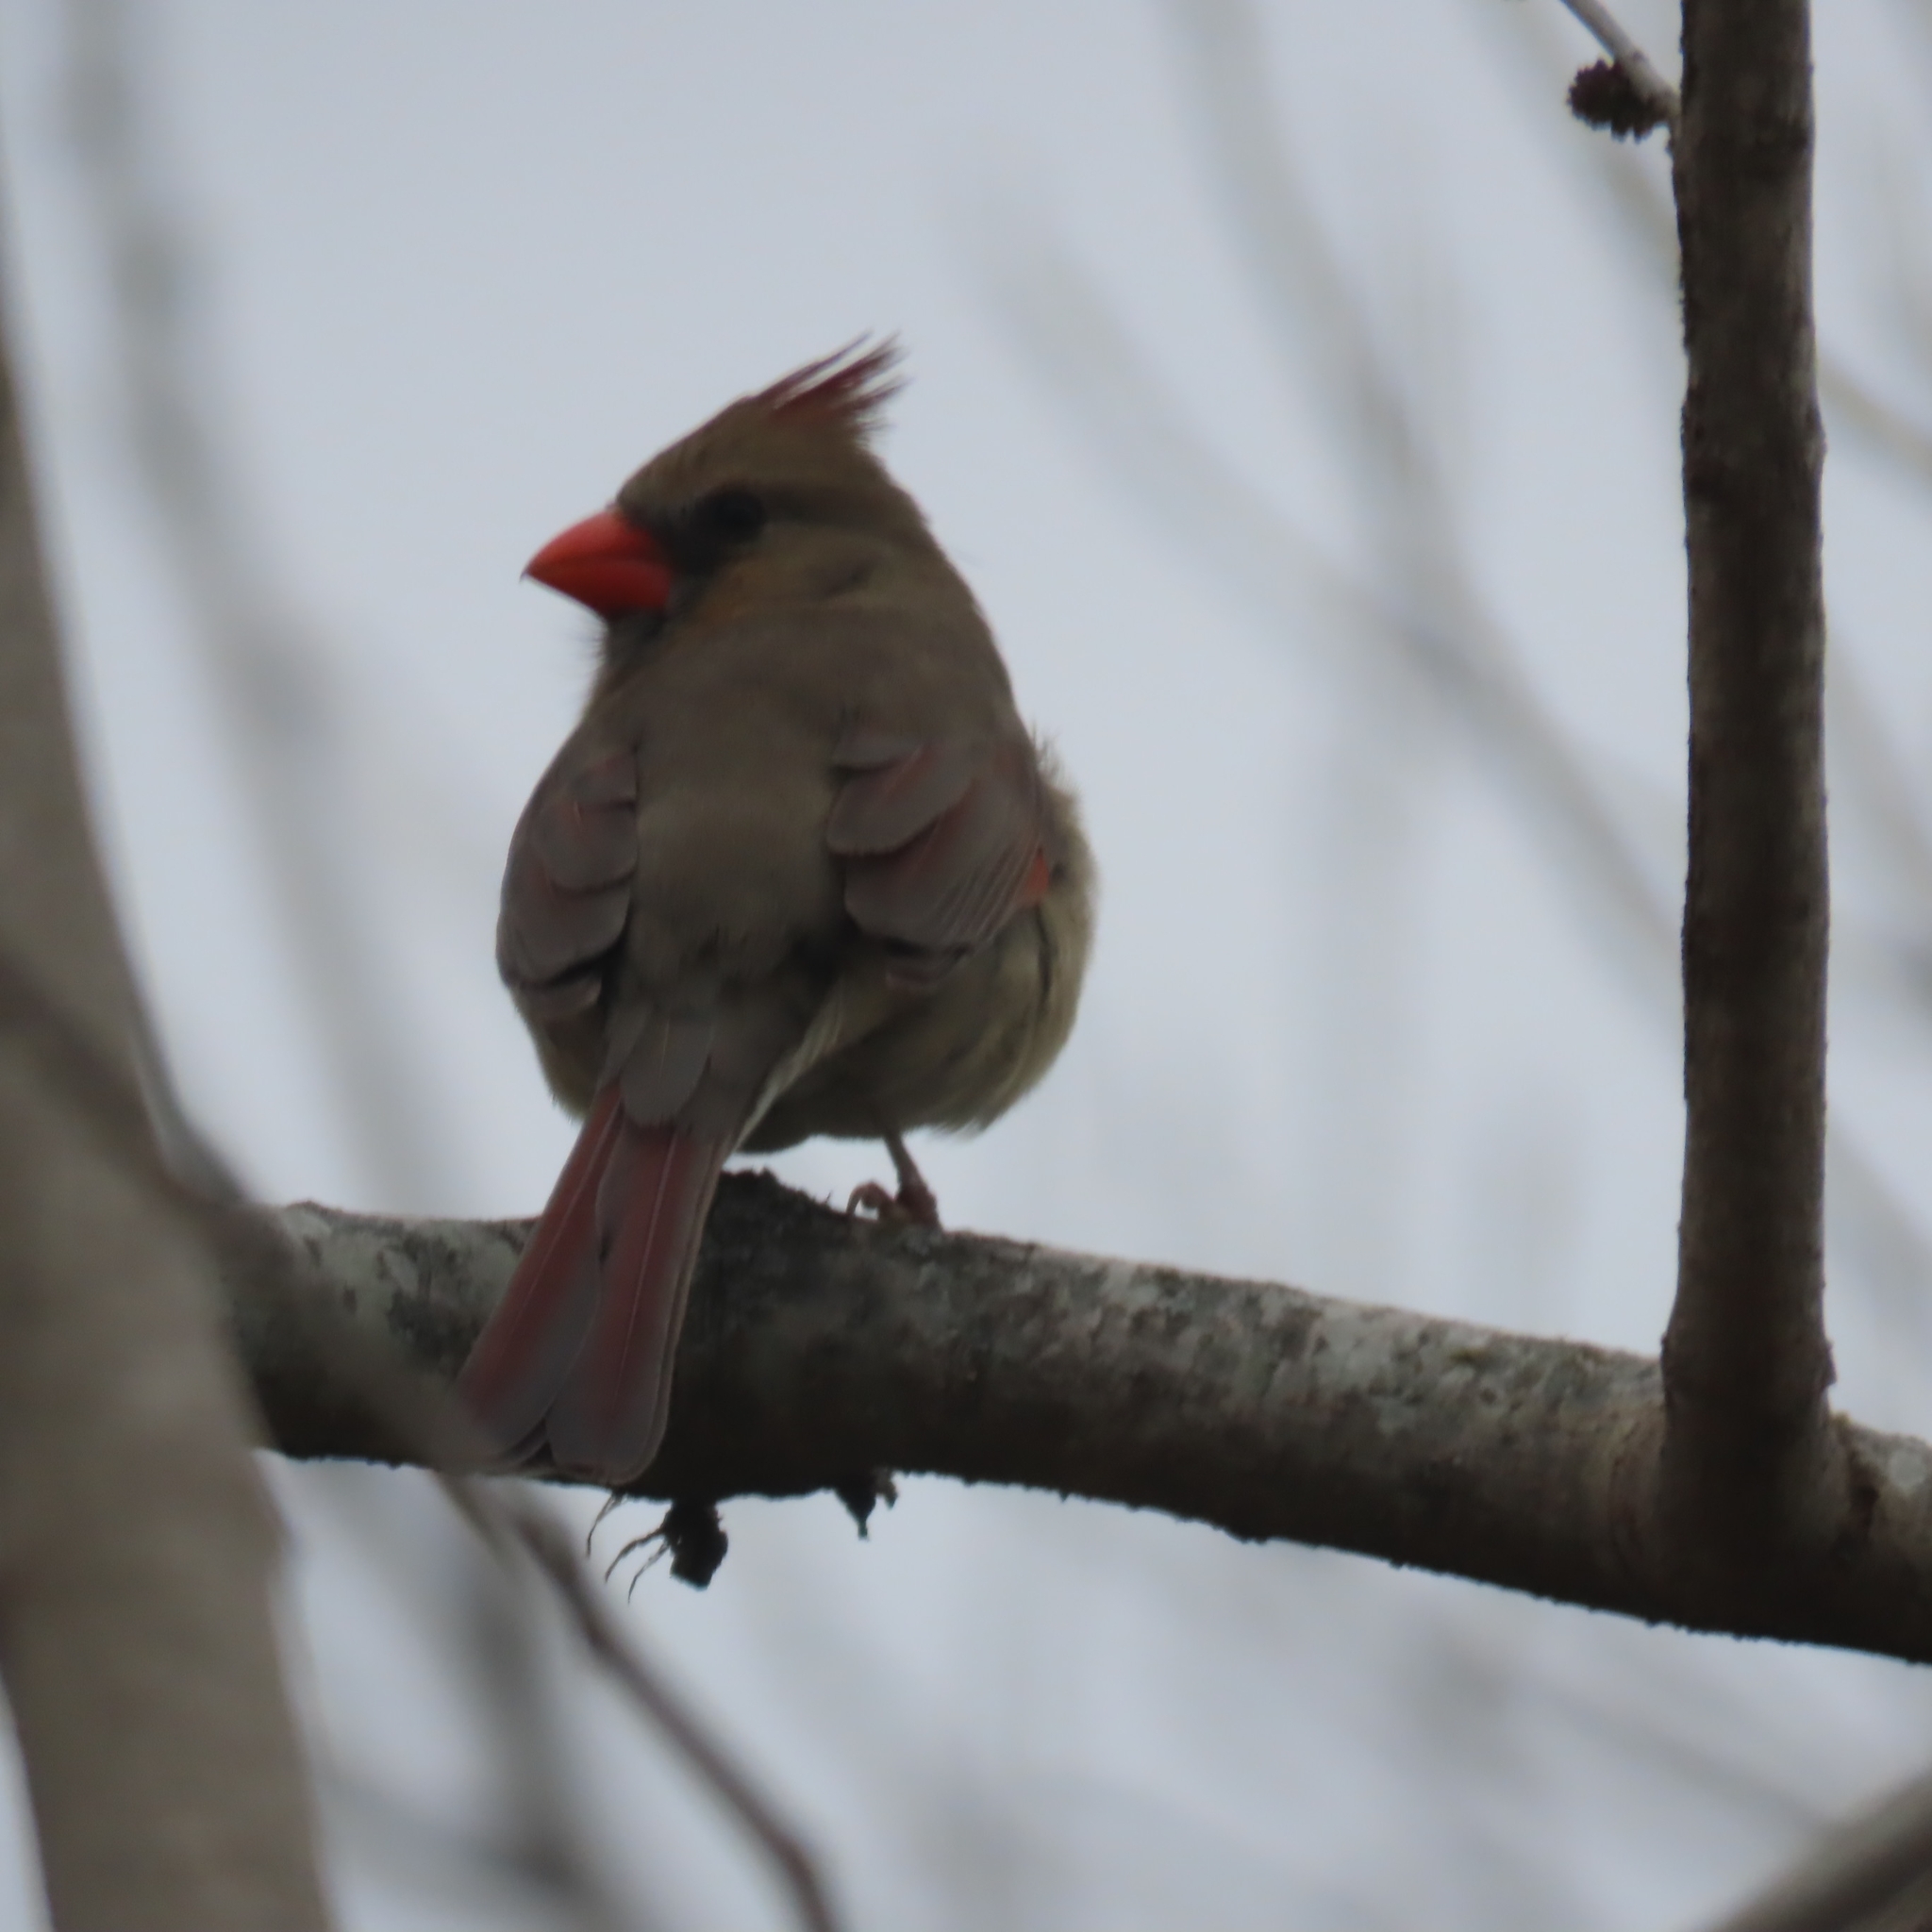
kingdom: Animalia
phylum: Chordata
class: Aves
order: Passeriformes
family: Cardinalidae
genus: Cardinalis
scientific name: Cardinalis cardinalis
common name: Northern cardinal
